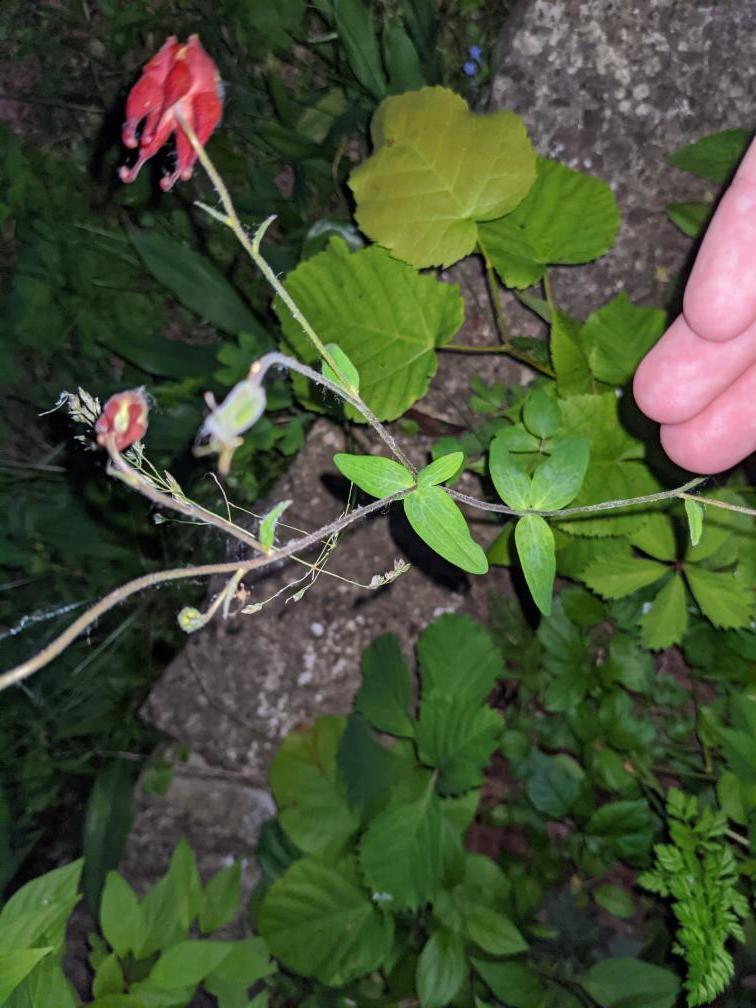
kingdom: Plantae
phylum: Tracheophyta
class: Magnoliopsida
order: Ranunculales
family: Ranunculaceae
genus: Aquilegia
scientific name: Aquilegia canadensis
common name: American columbine
